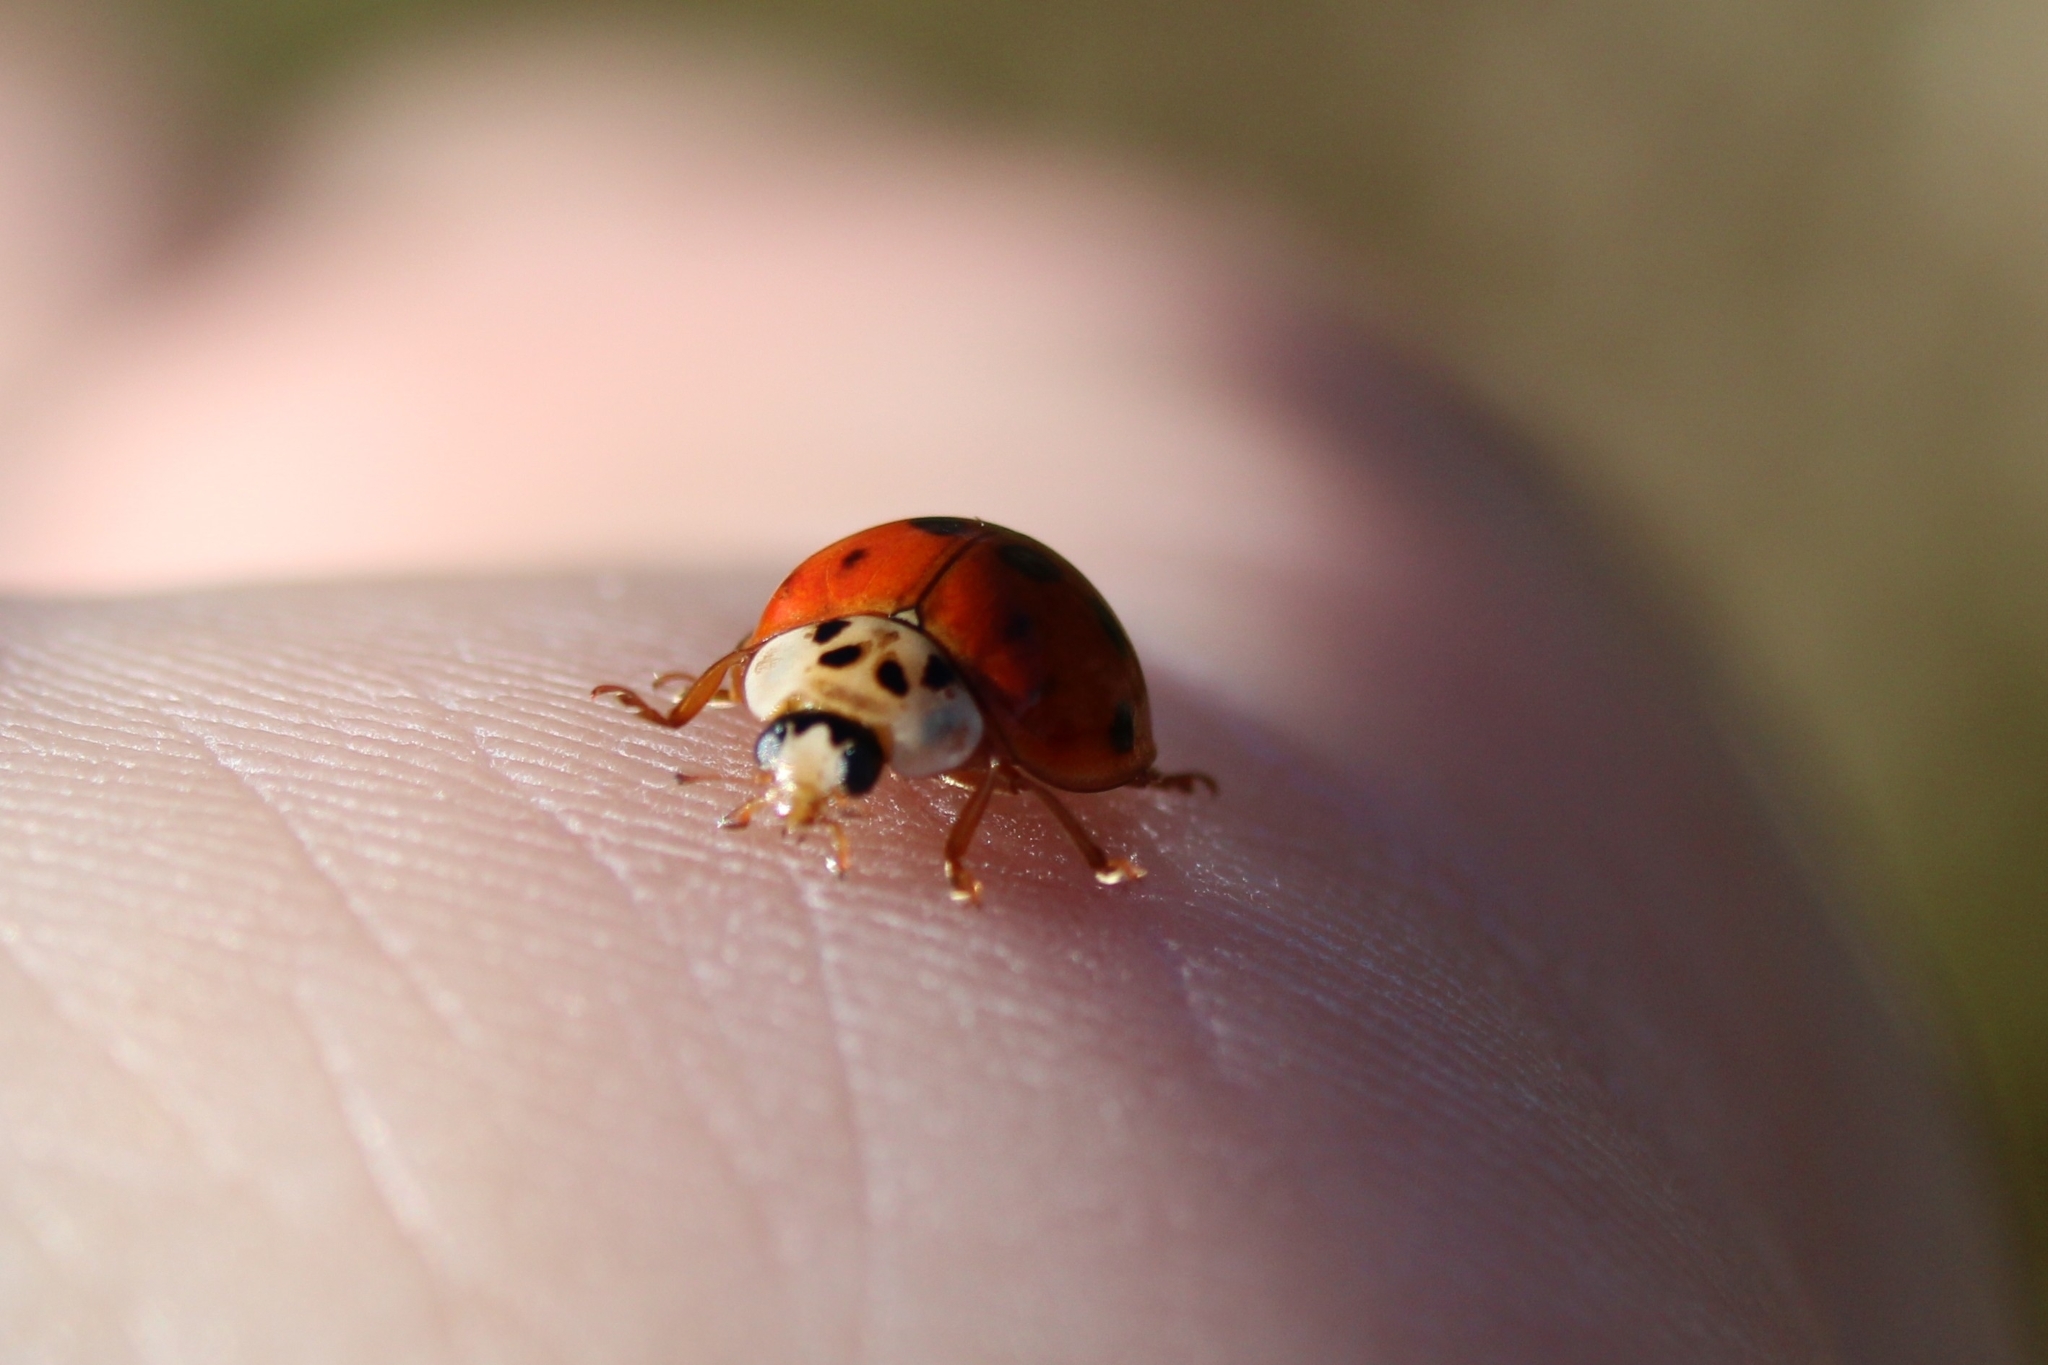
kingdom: Animalia
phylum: Arthropoda
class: Insecta
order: Coleoptera
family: Coccinellidae
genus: Harmonia
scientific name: Harmonia axyridis
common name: Harlequin ladybird
